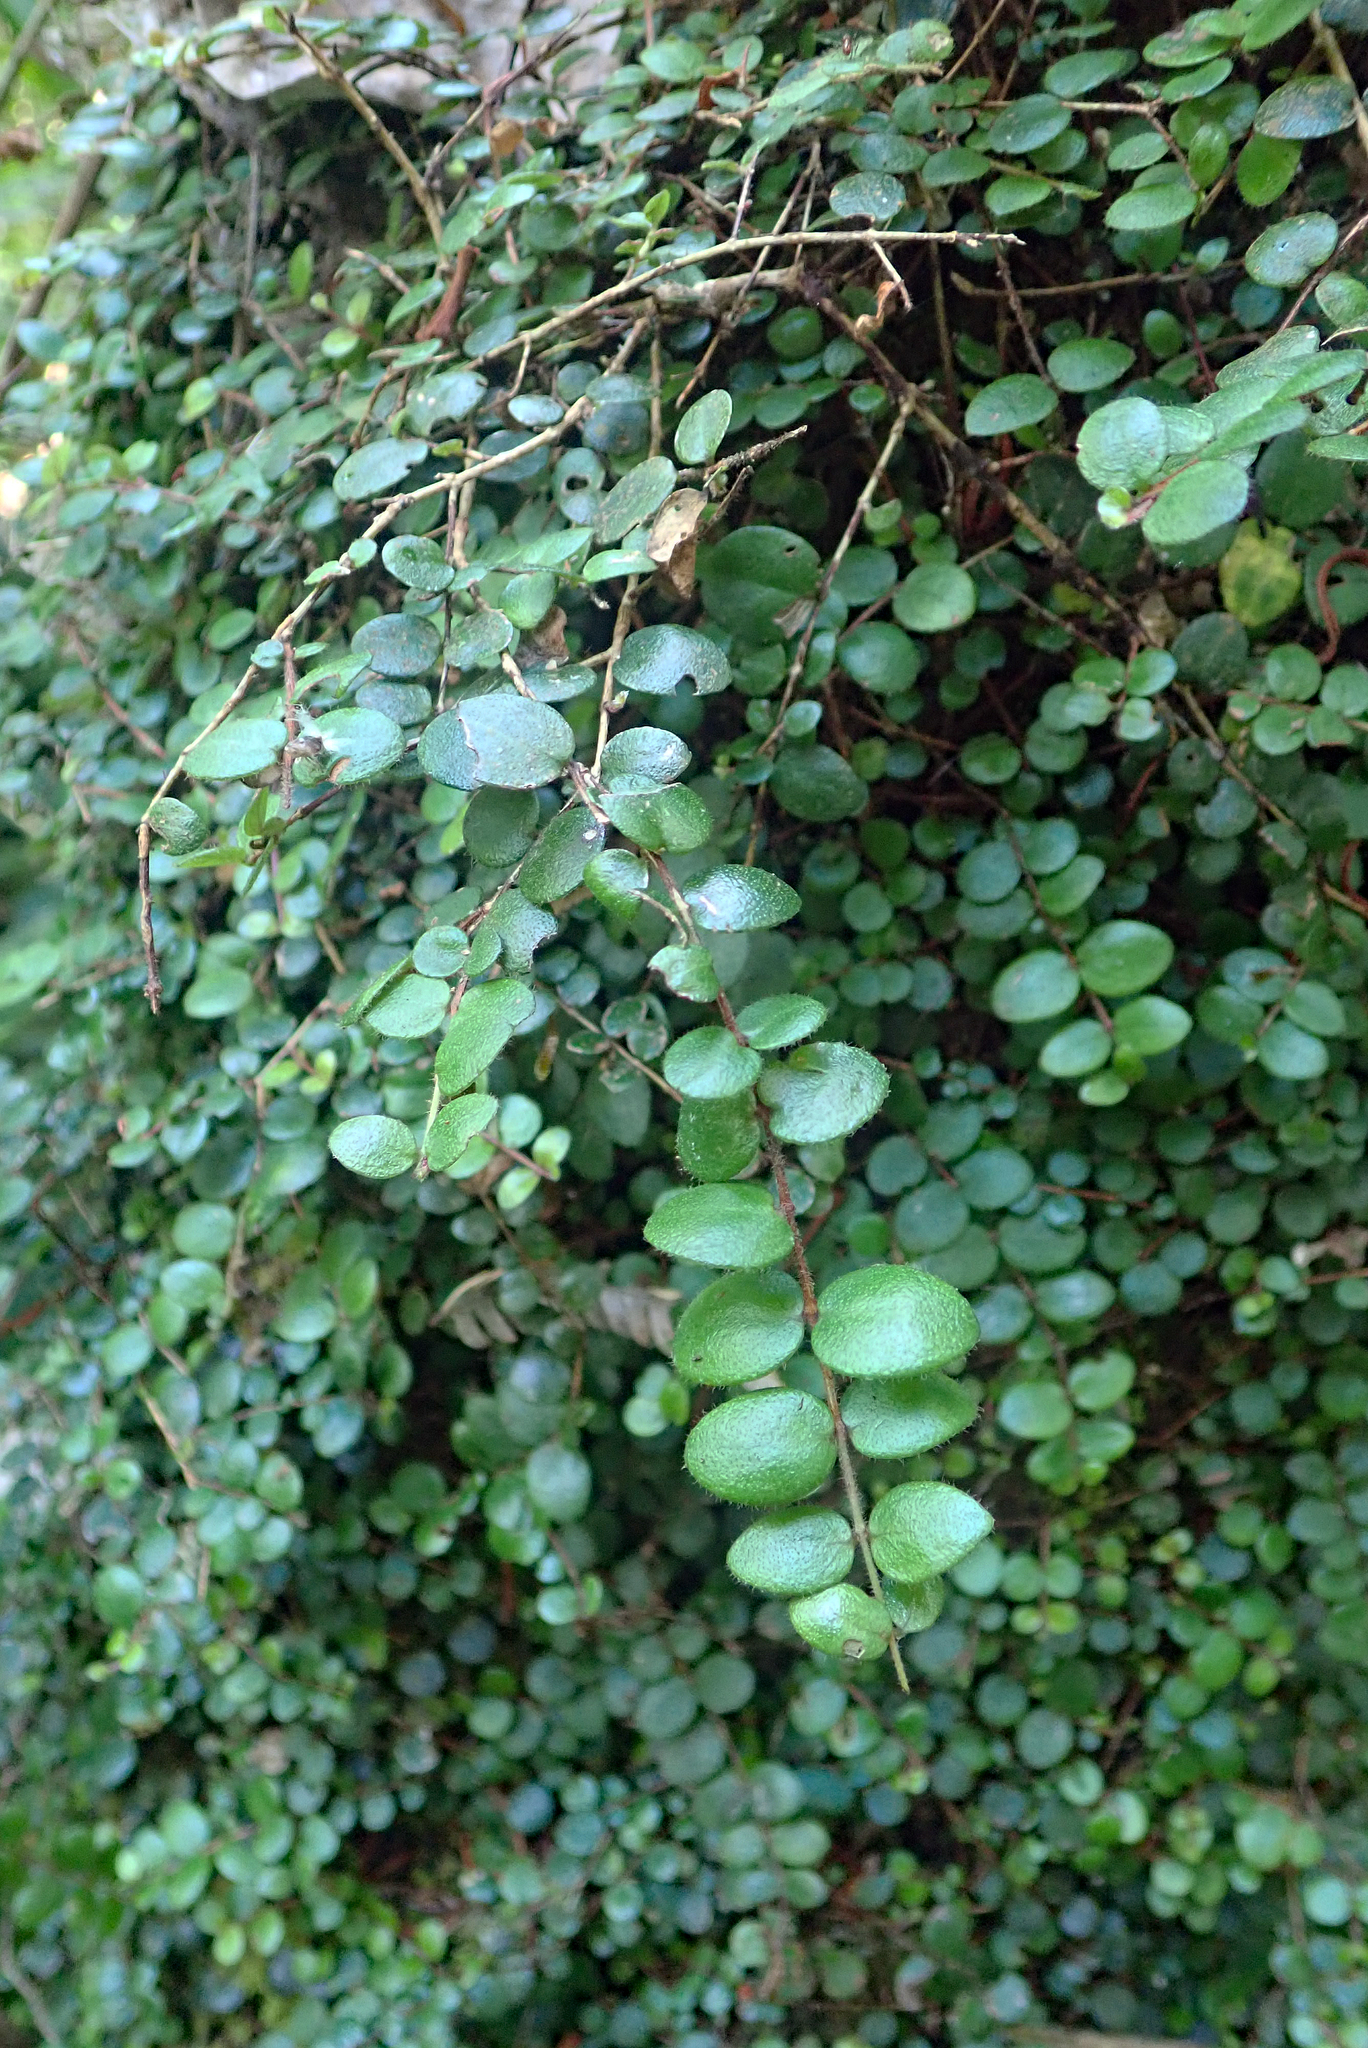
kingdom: Plantae
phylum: Tracheophyta
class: Magnoliopsida
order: Myrtales
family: Myrtaceae
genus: Metrosideros
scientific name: Metrosideros carminea
